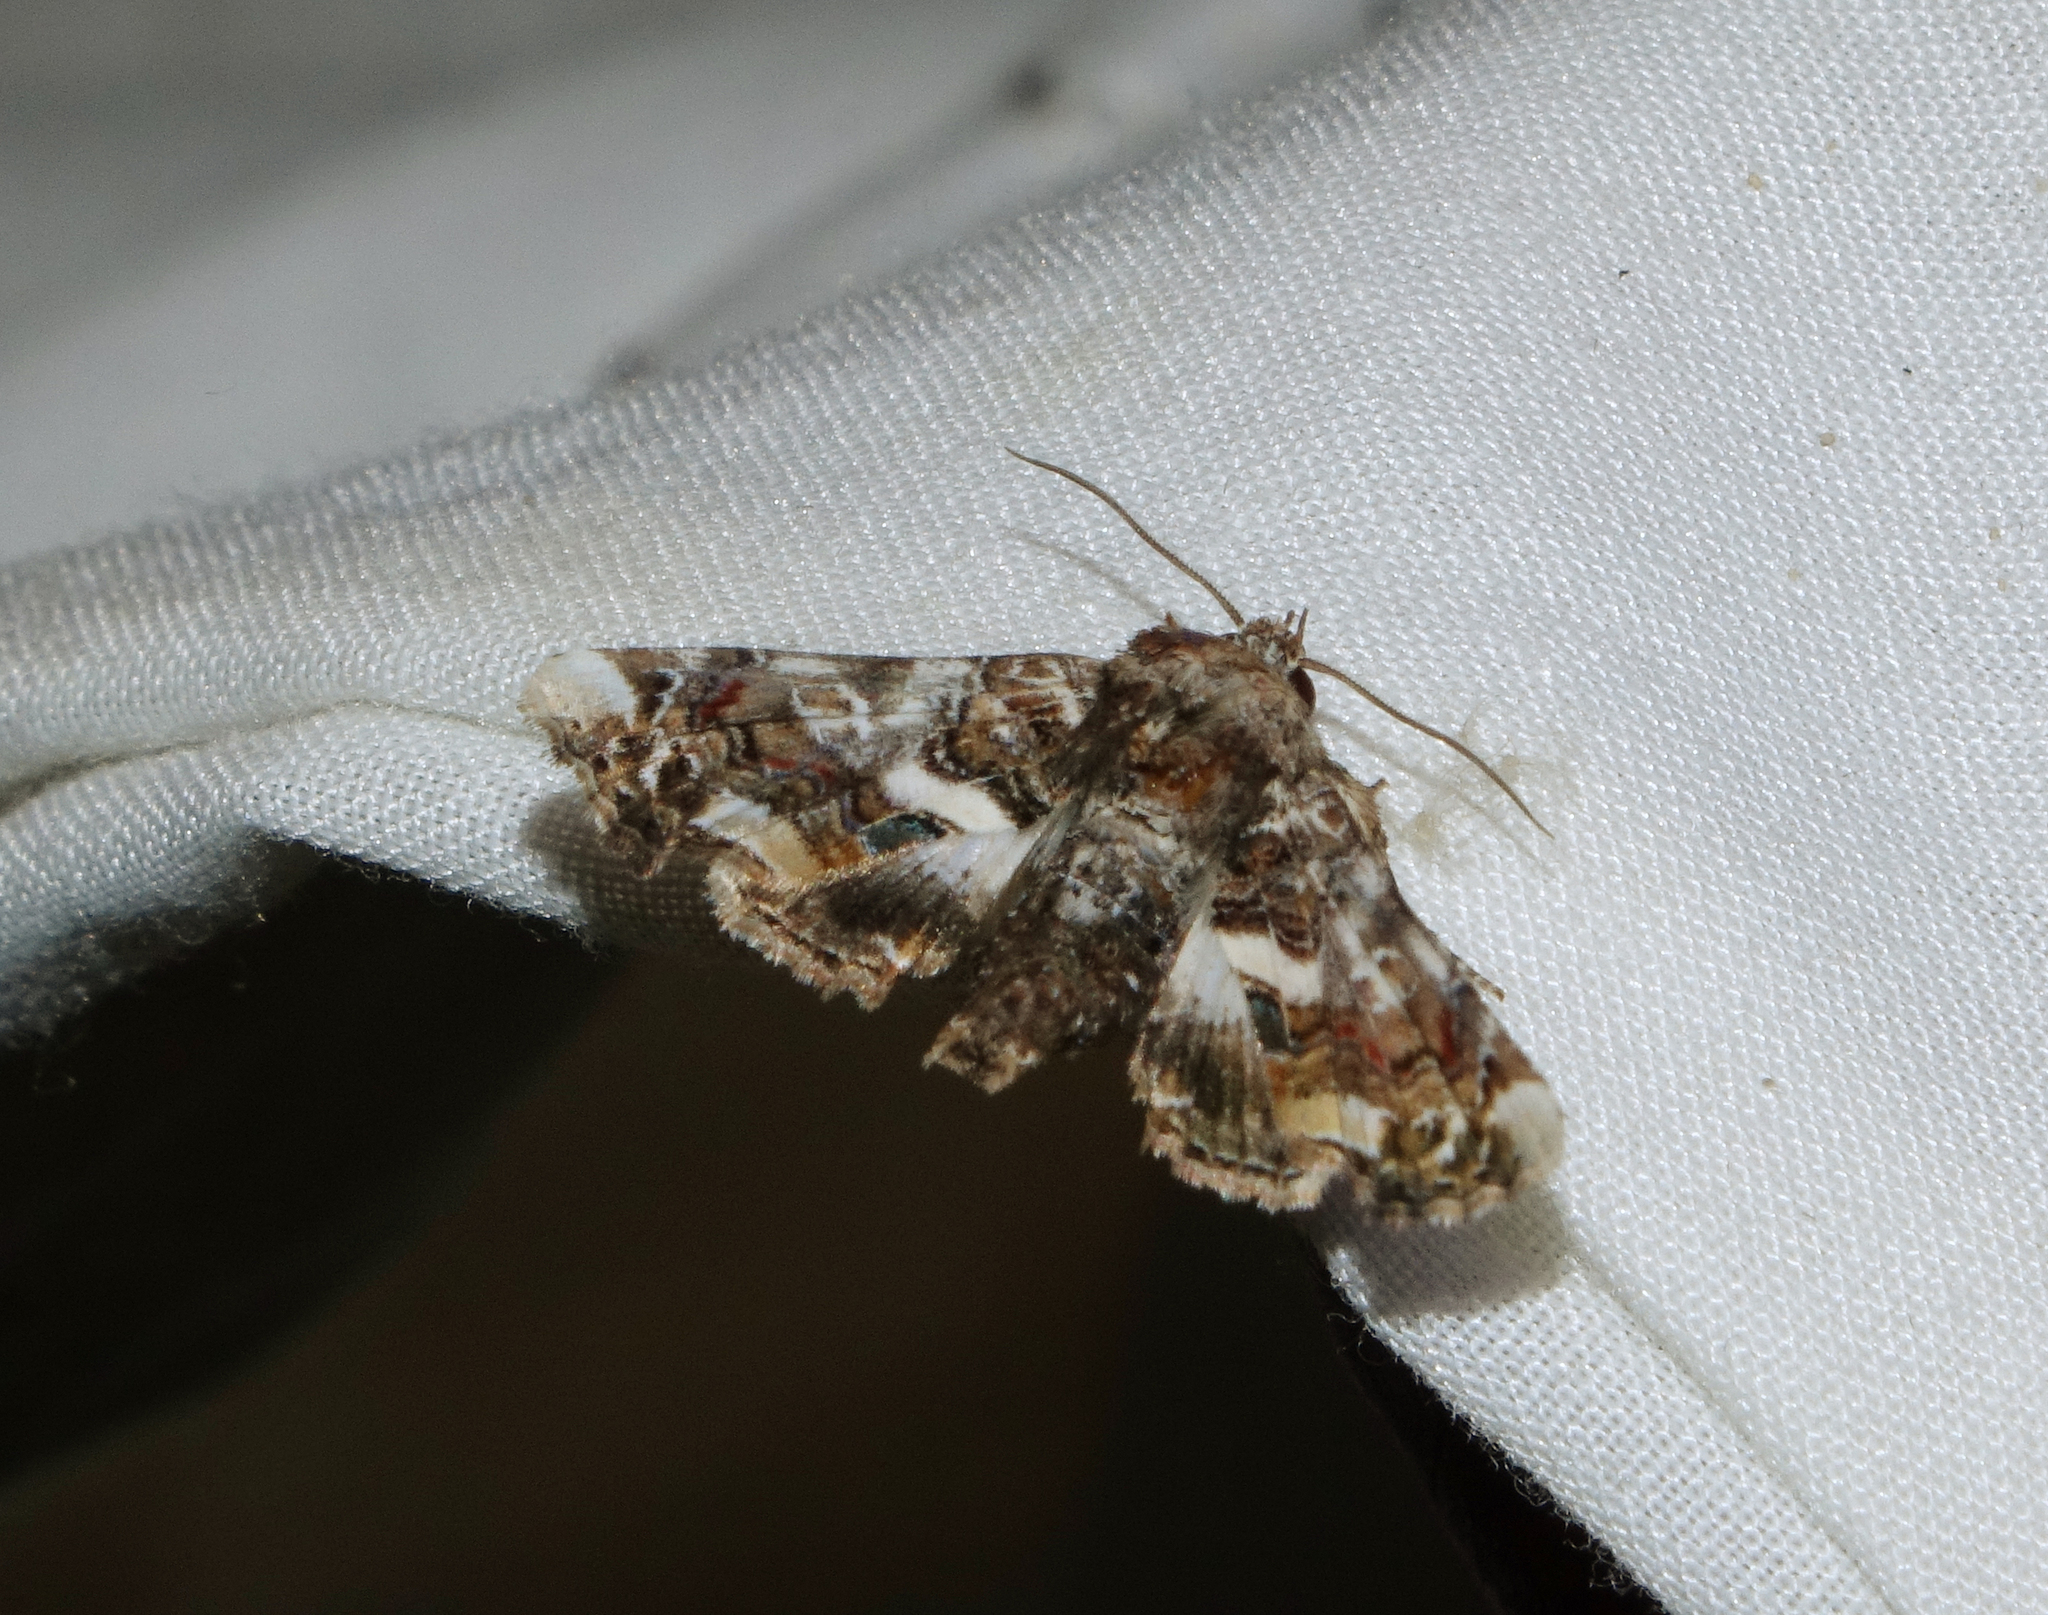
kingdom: Animalia
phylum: Arthropoda
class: Insecta
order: Lepidoptera
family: Euteliidae
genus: Eutelia
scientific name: Eutelia adulatrix
